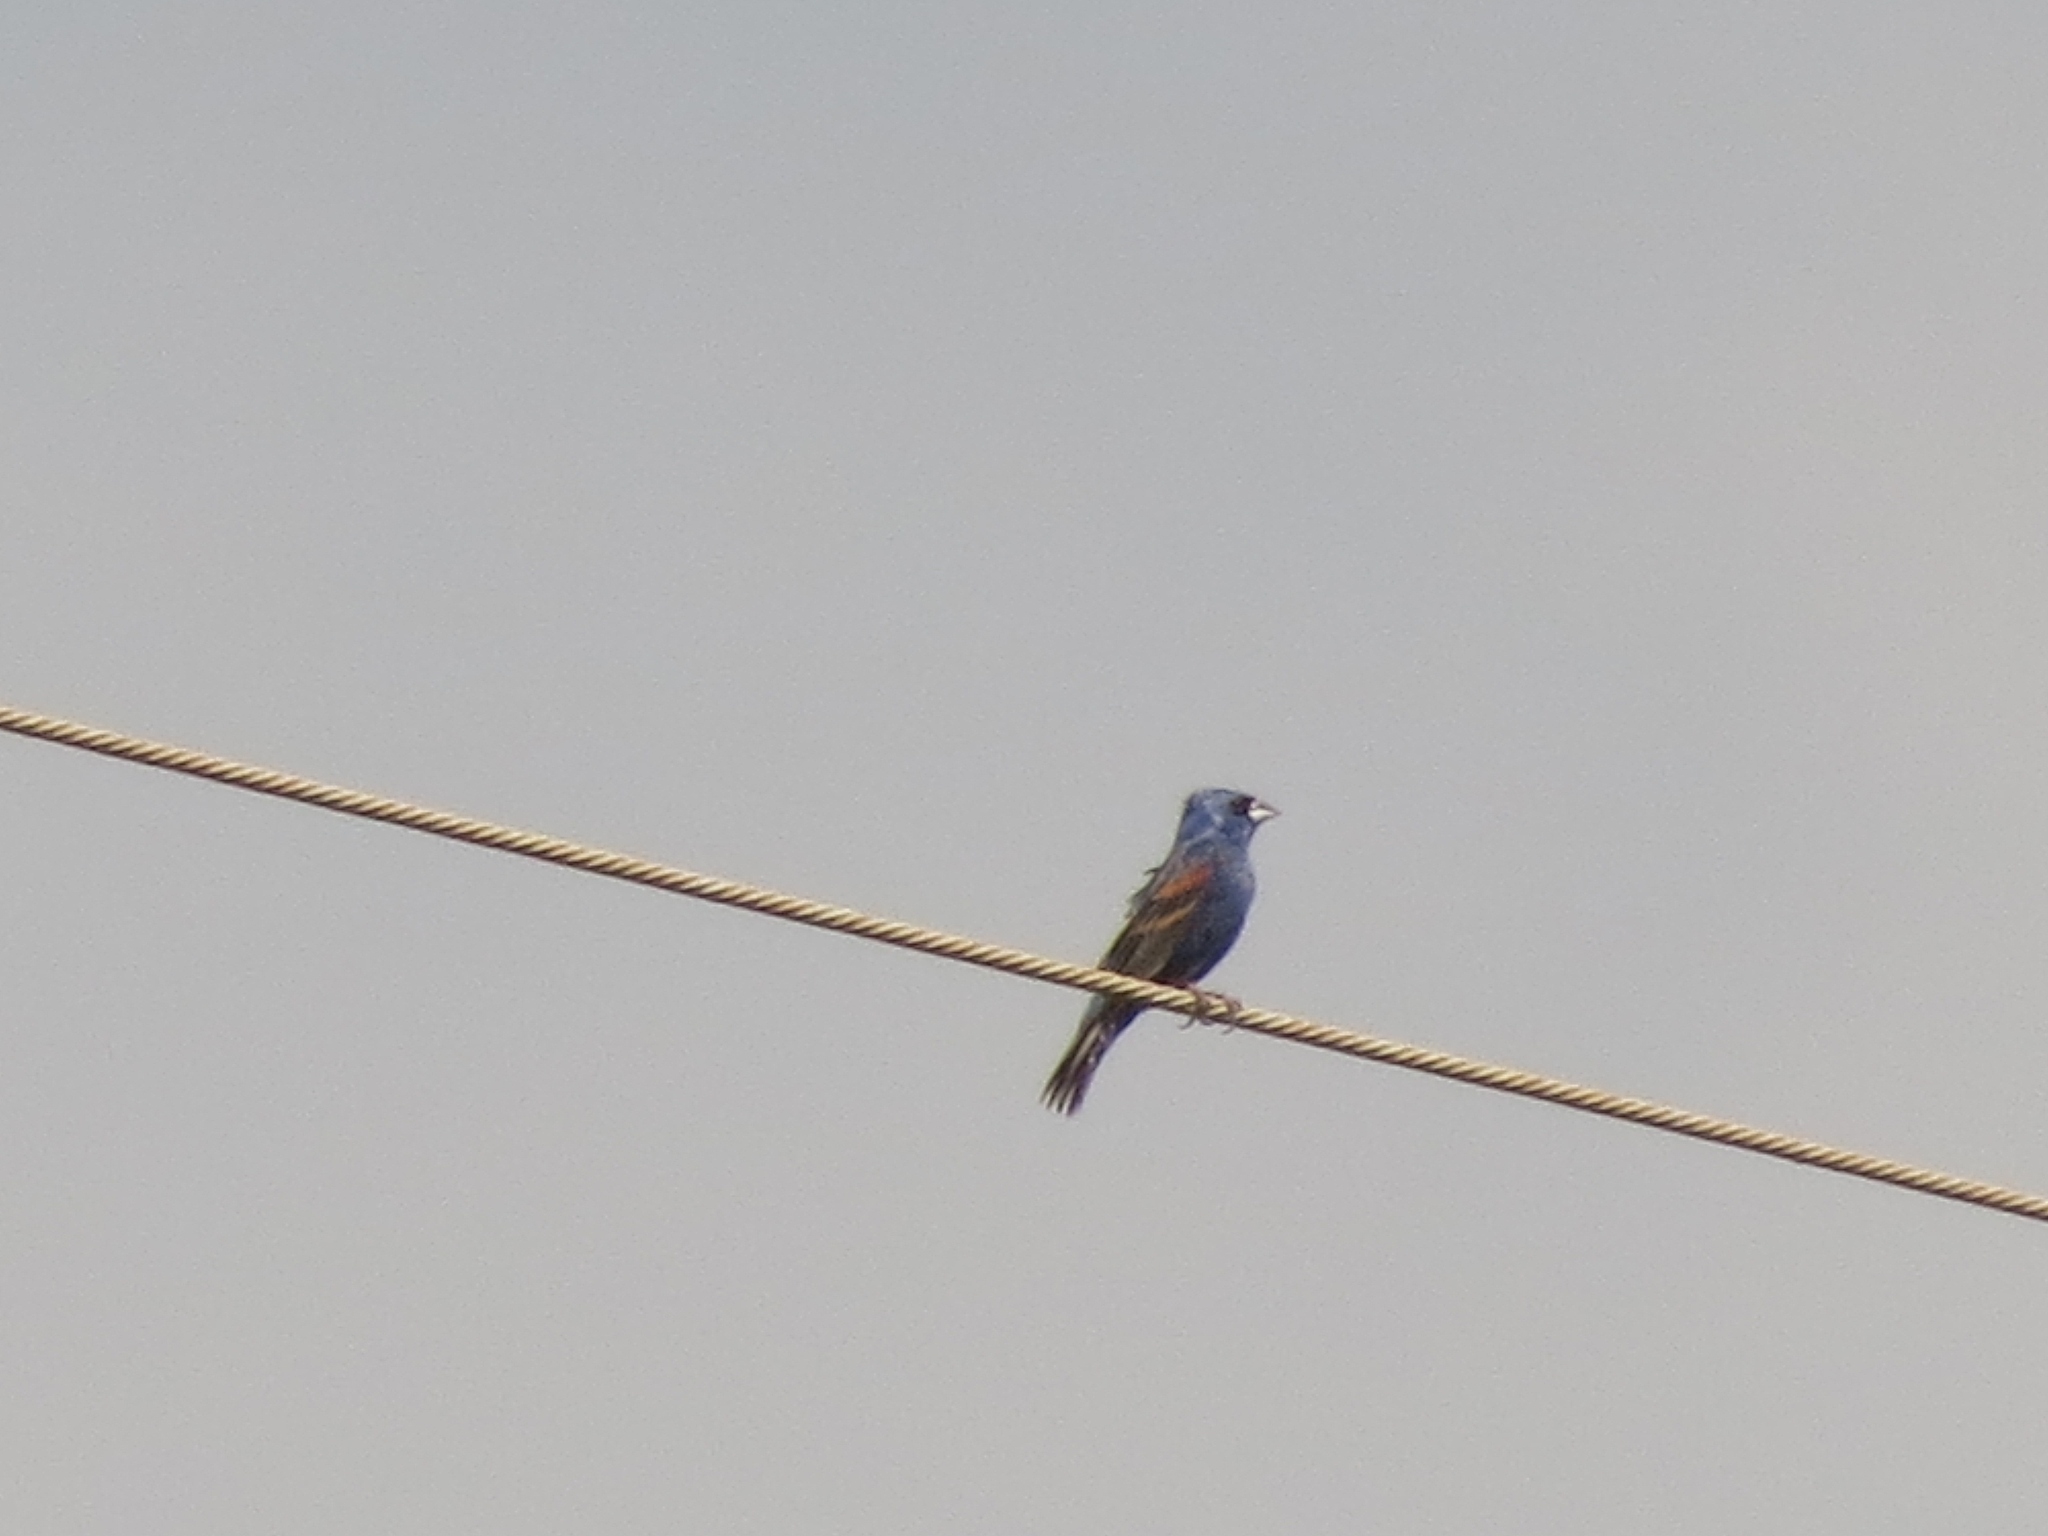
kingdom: Animalia
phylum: Chordata
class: Aves
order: Passeriformes
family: Cardinalidae
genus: Passerina
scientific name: Passerina caerulea
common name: Blue grosbeak
